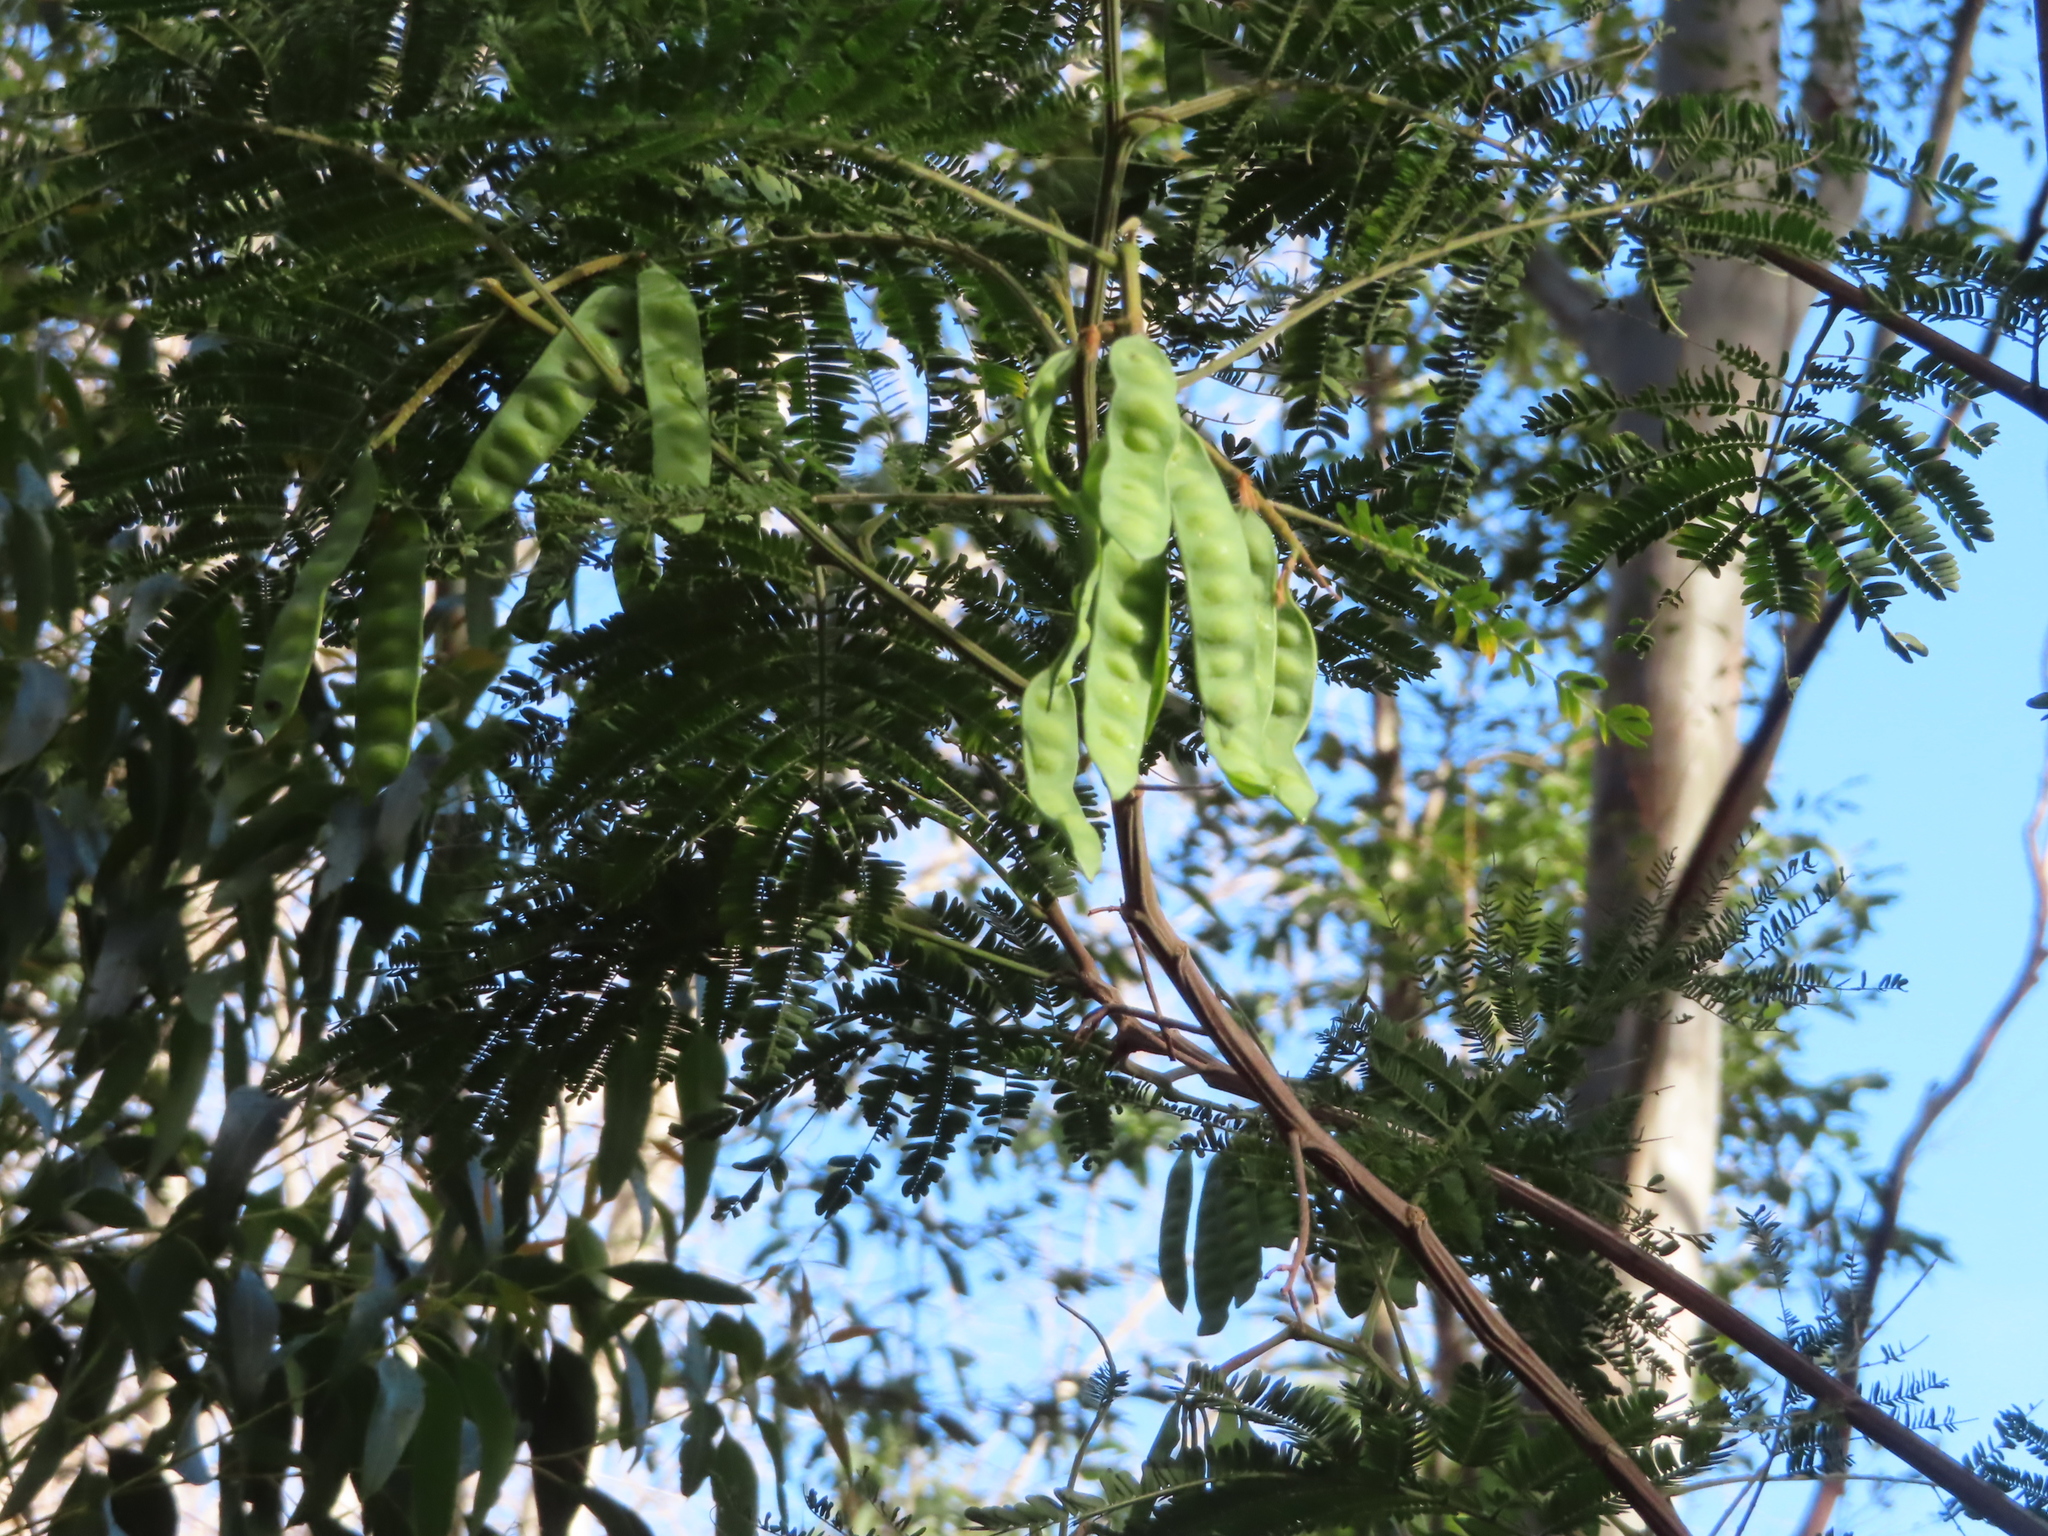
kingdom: Plantae
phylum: Tracheophyta
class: Magnoliopsida
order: Fabales
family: Fabaceae
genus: Paraserianthes
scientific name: Paraserianthes lophantha
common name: Plume albizia
